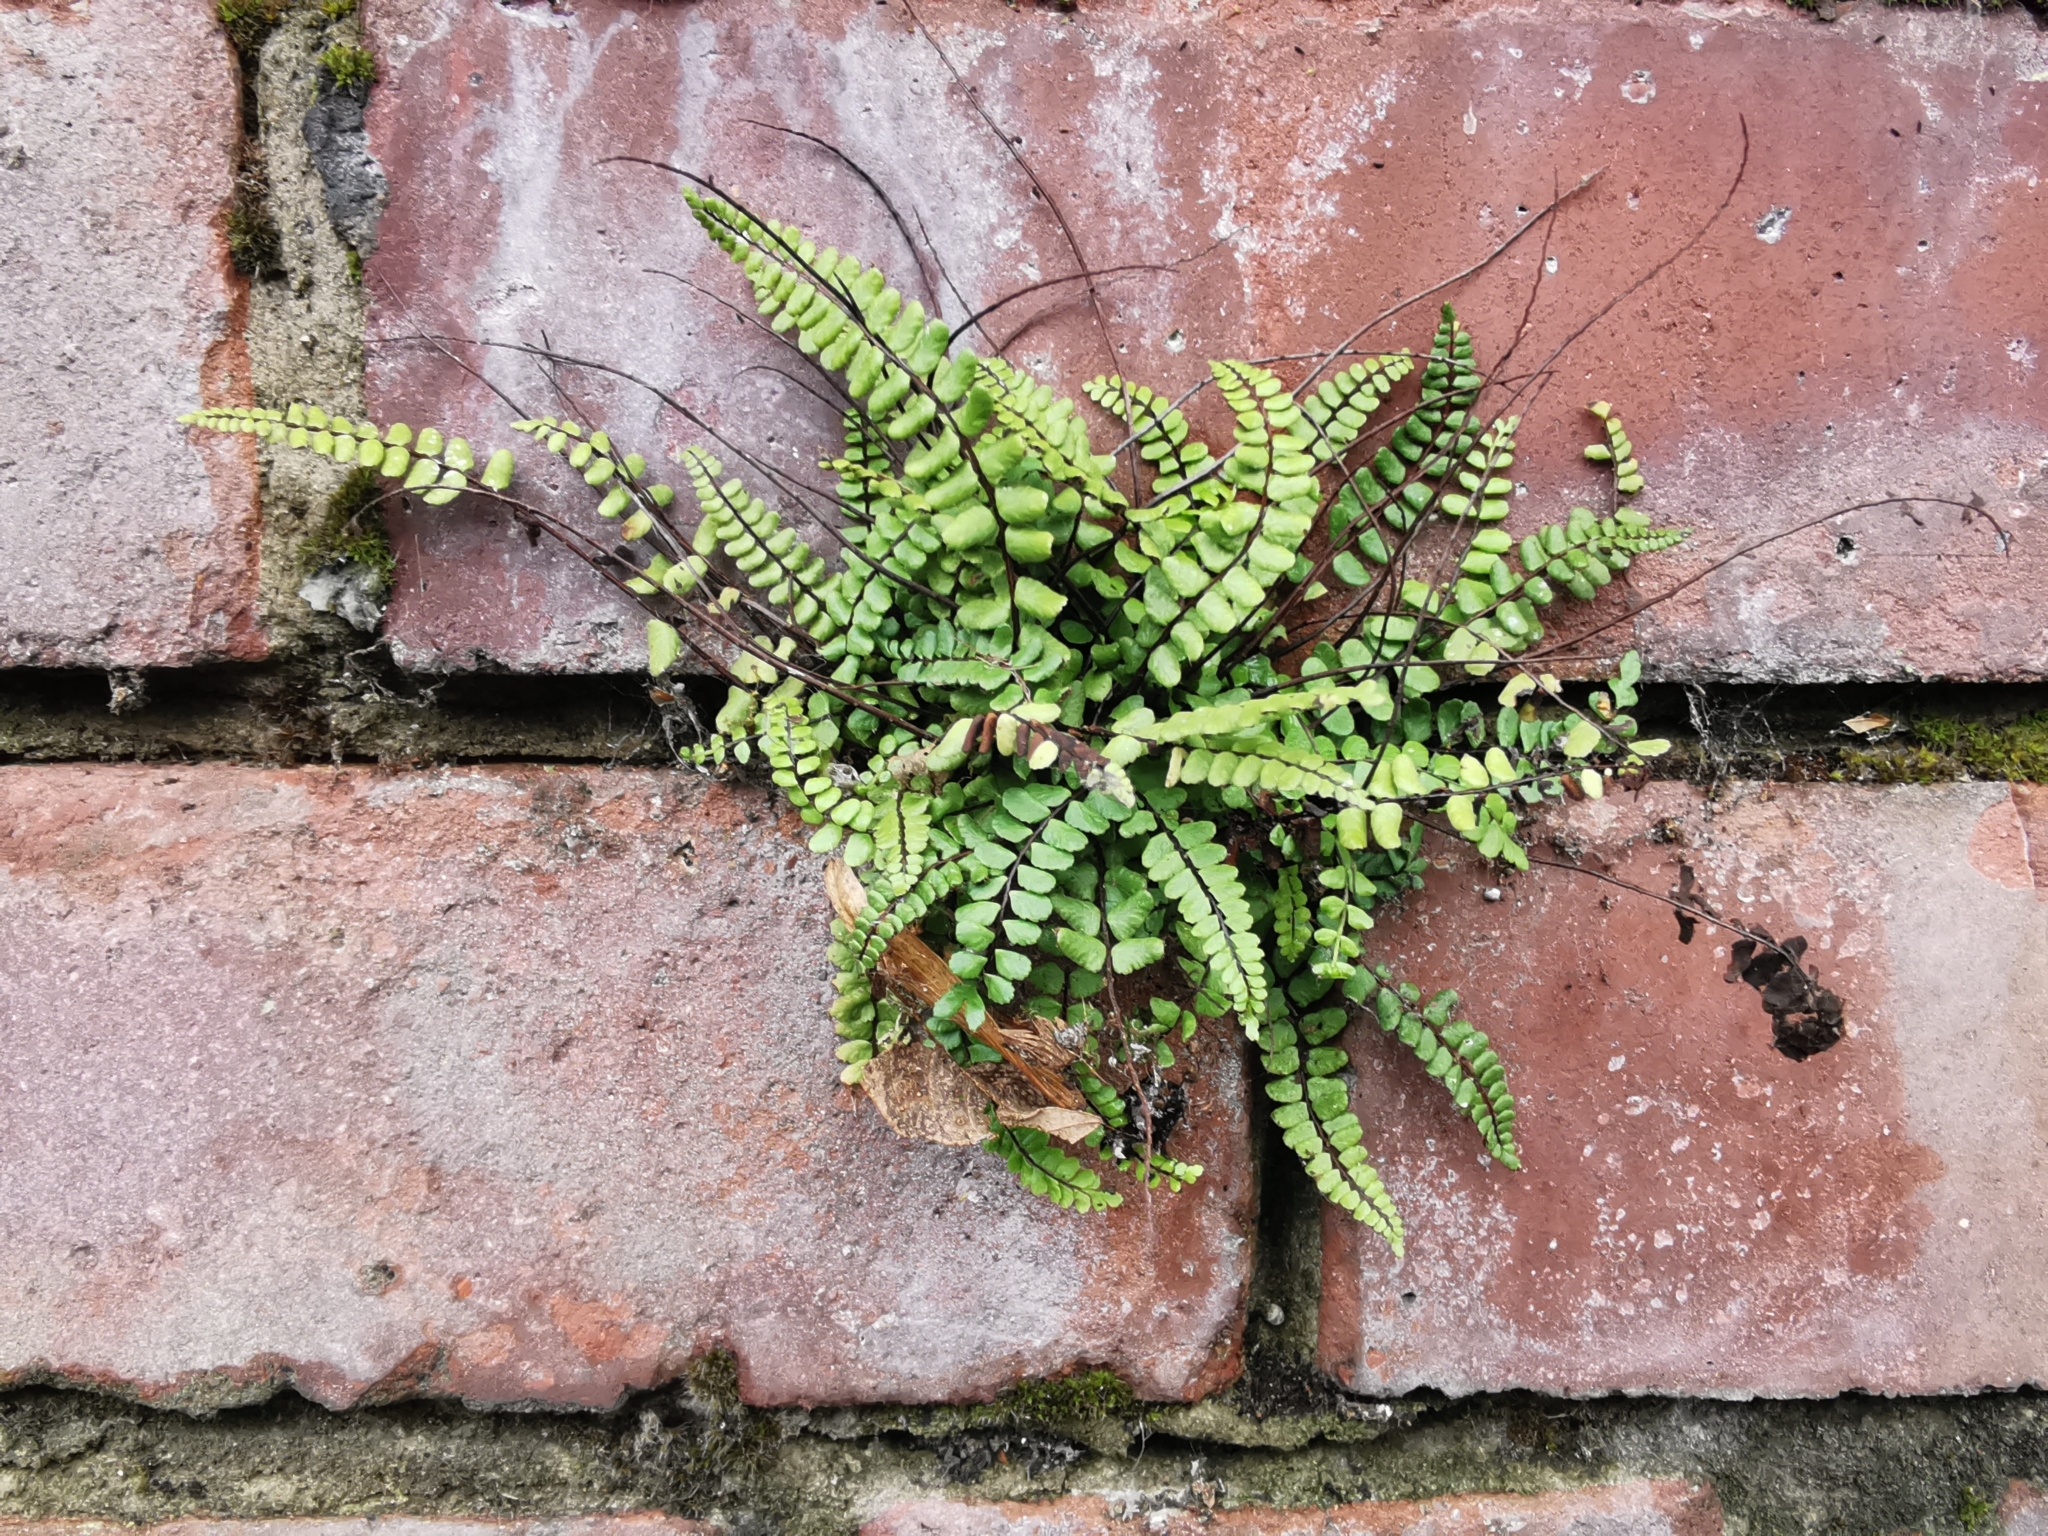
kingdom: Plantae
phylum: Tracheophyta
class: Polypodiopsida
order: Polypodiales
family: Aspleniaceae
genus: Asplenium
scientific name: Asplenium trichomanes
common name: Maidenhair spleenwort
